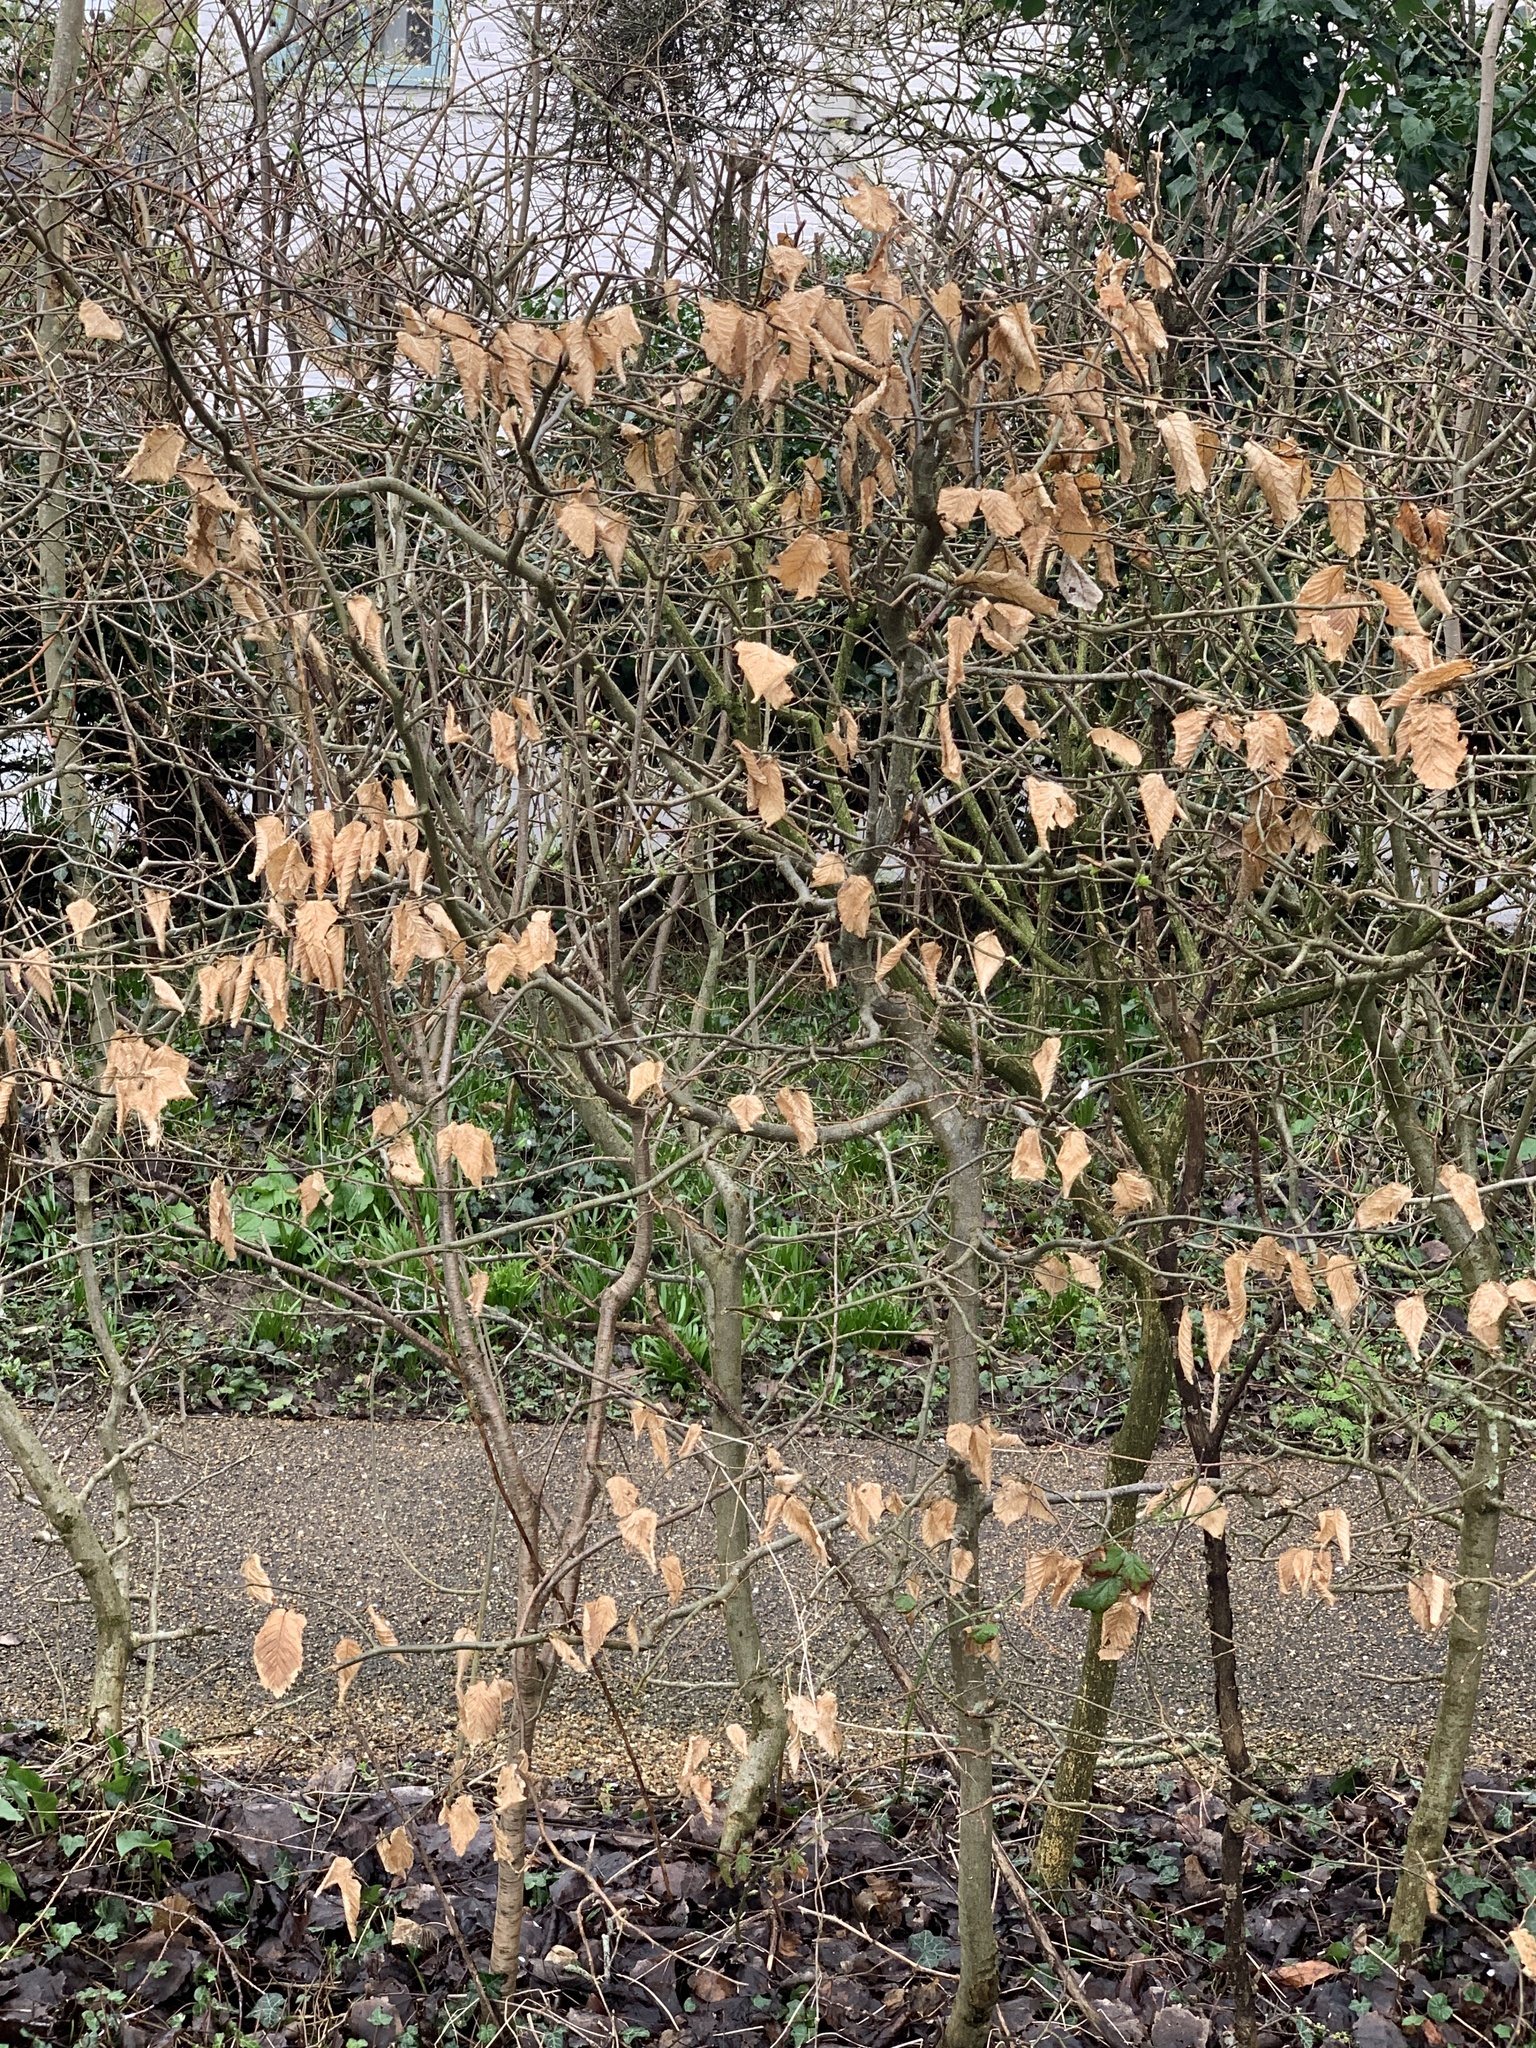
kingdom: Plantae
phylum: Tracheophyta
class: Magnoliopsida
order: Fagales
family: Fagaceae
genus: Fagus
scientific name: Fagus sylvatica
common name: Beech
